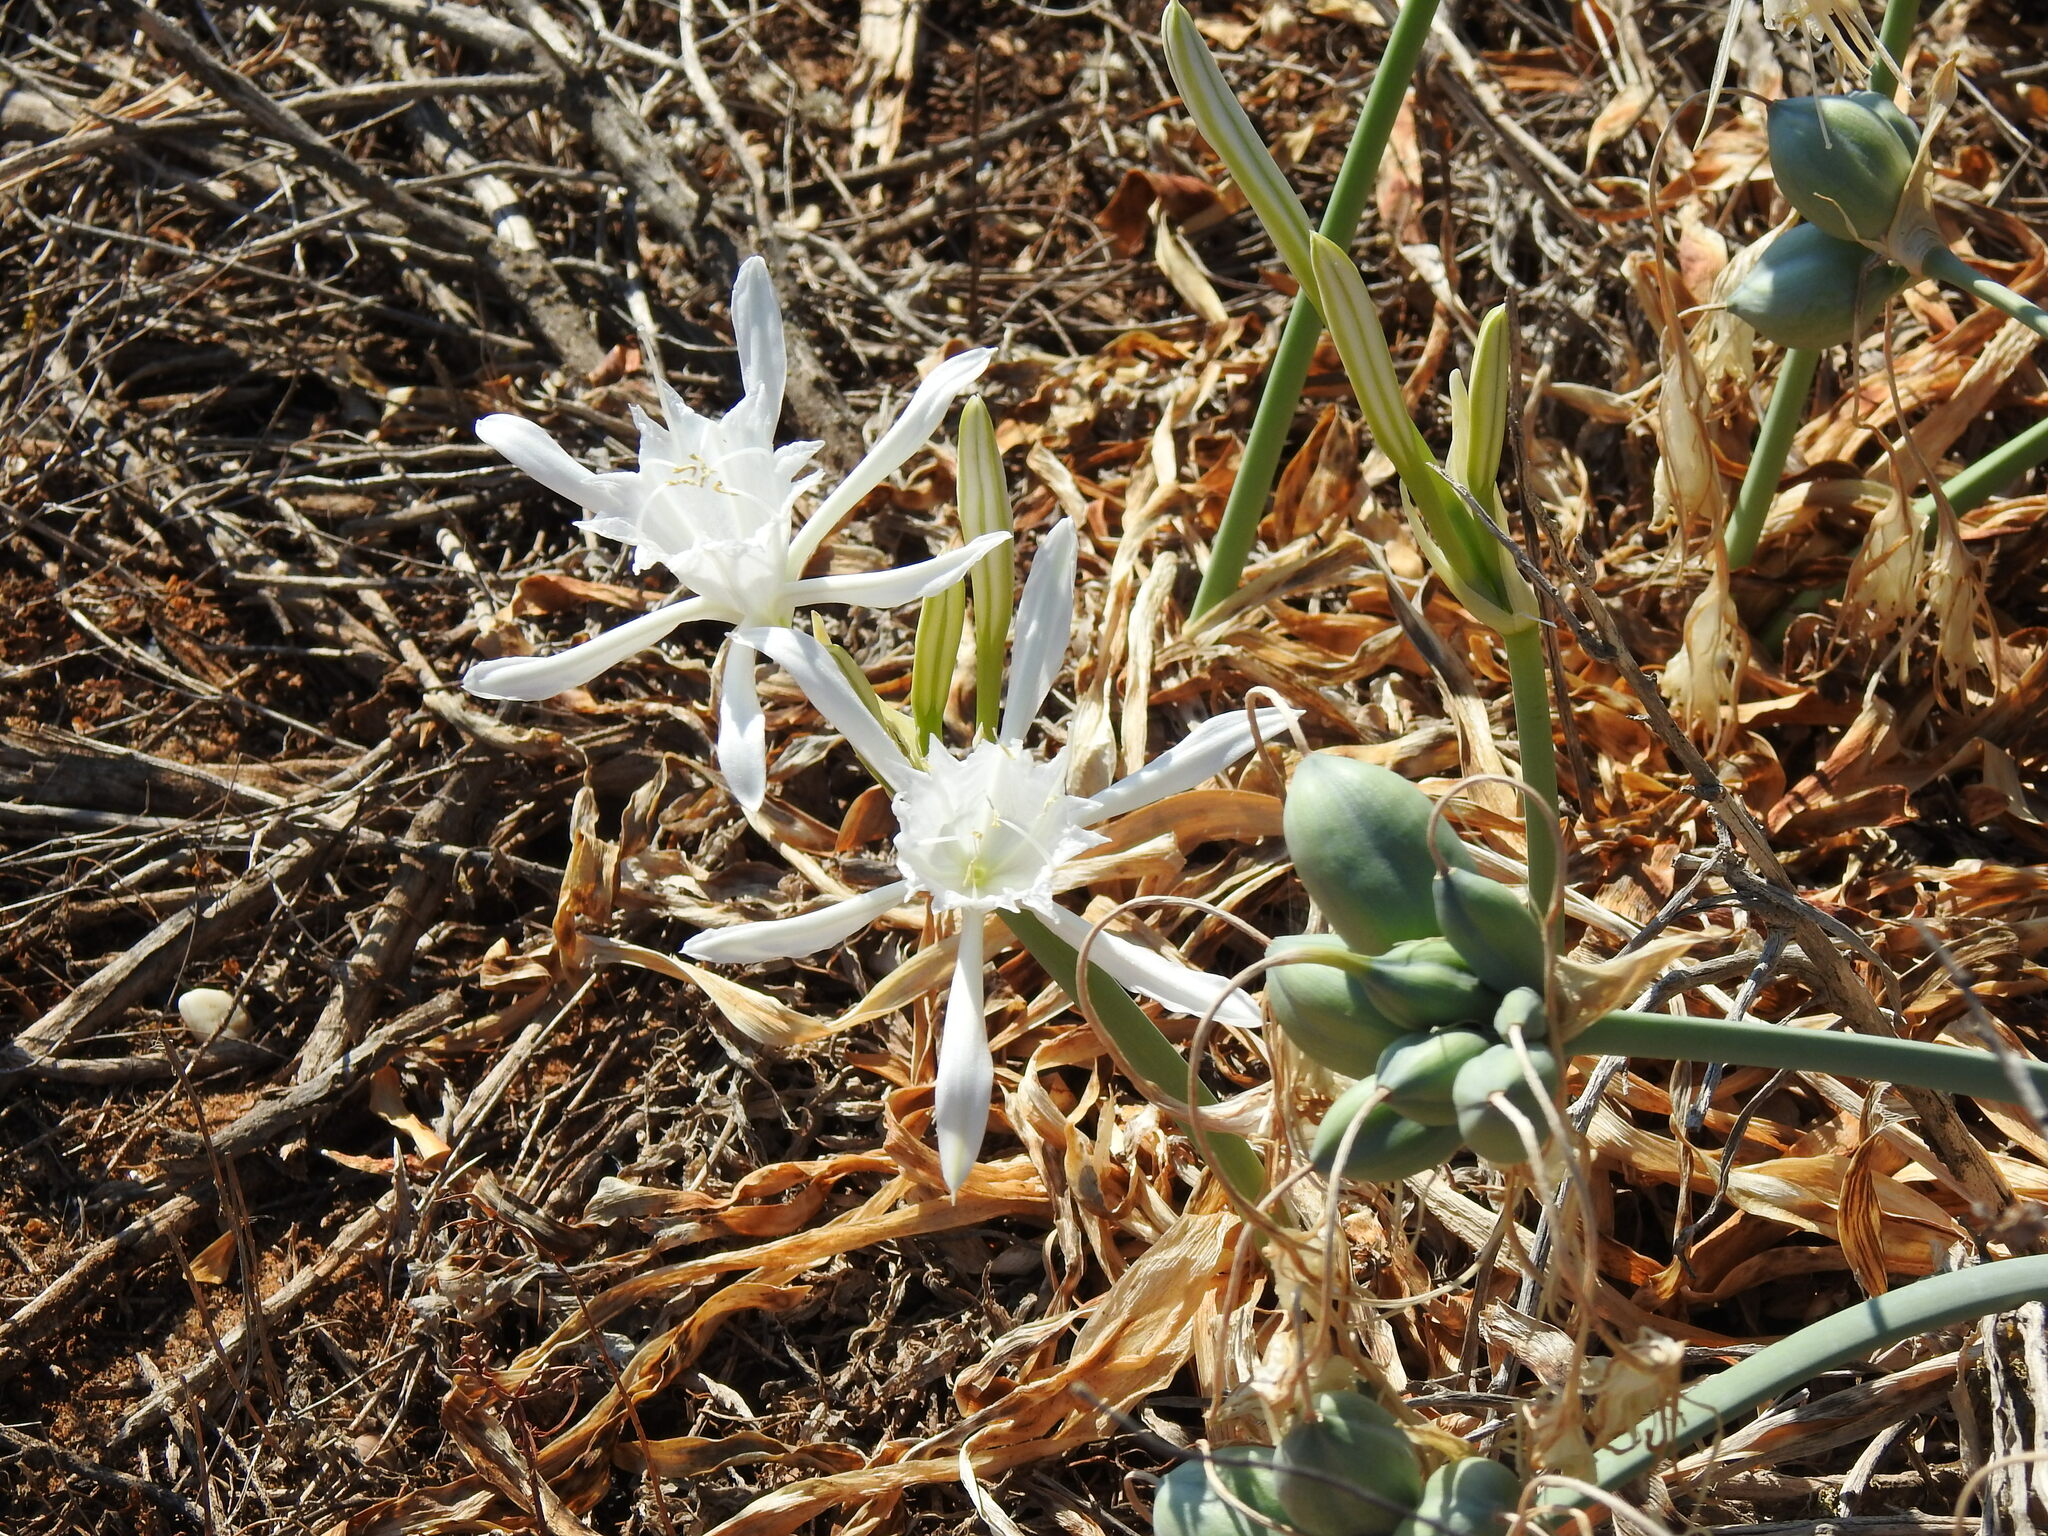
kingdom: Plantae
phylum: Tracheophyta
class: Liliopsida
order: Asparagales
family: Amaryllidaceae
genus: Pancratium
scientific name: Pancratium maritimum
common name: Sea-daffodil
